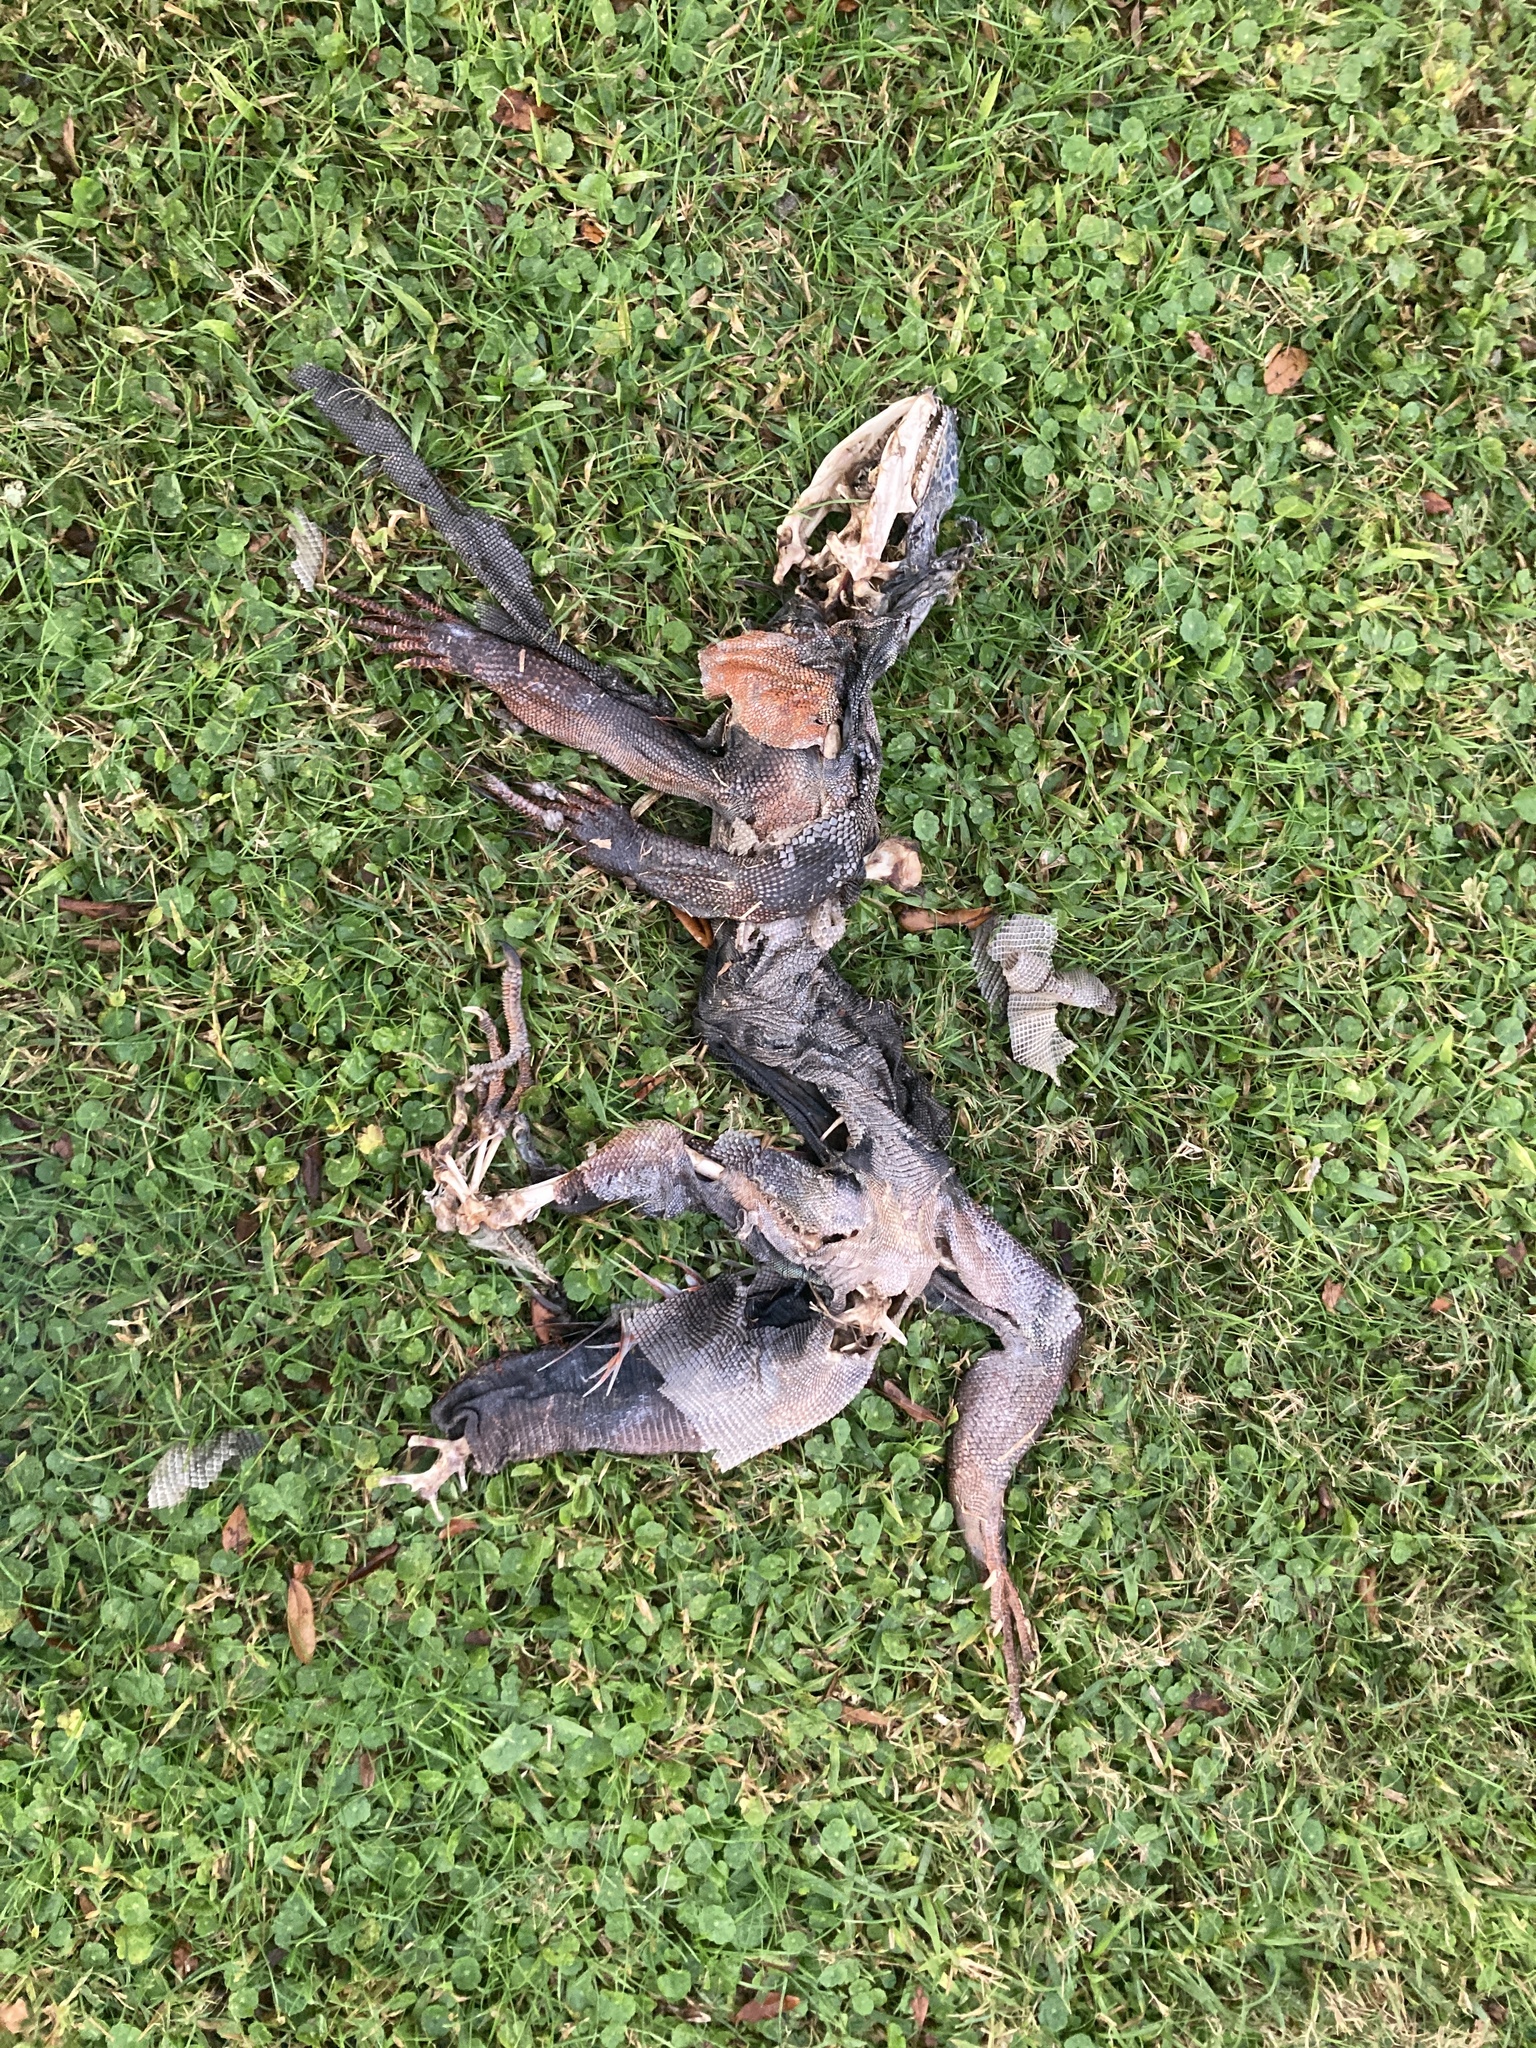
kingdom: Animalia
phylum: Chordata
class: Squamata
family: Iguanidae
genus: Iguana
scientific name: Iguana iguana
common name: Green iguana
